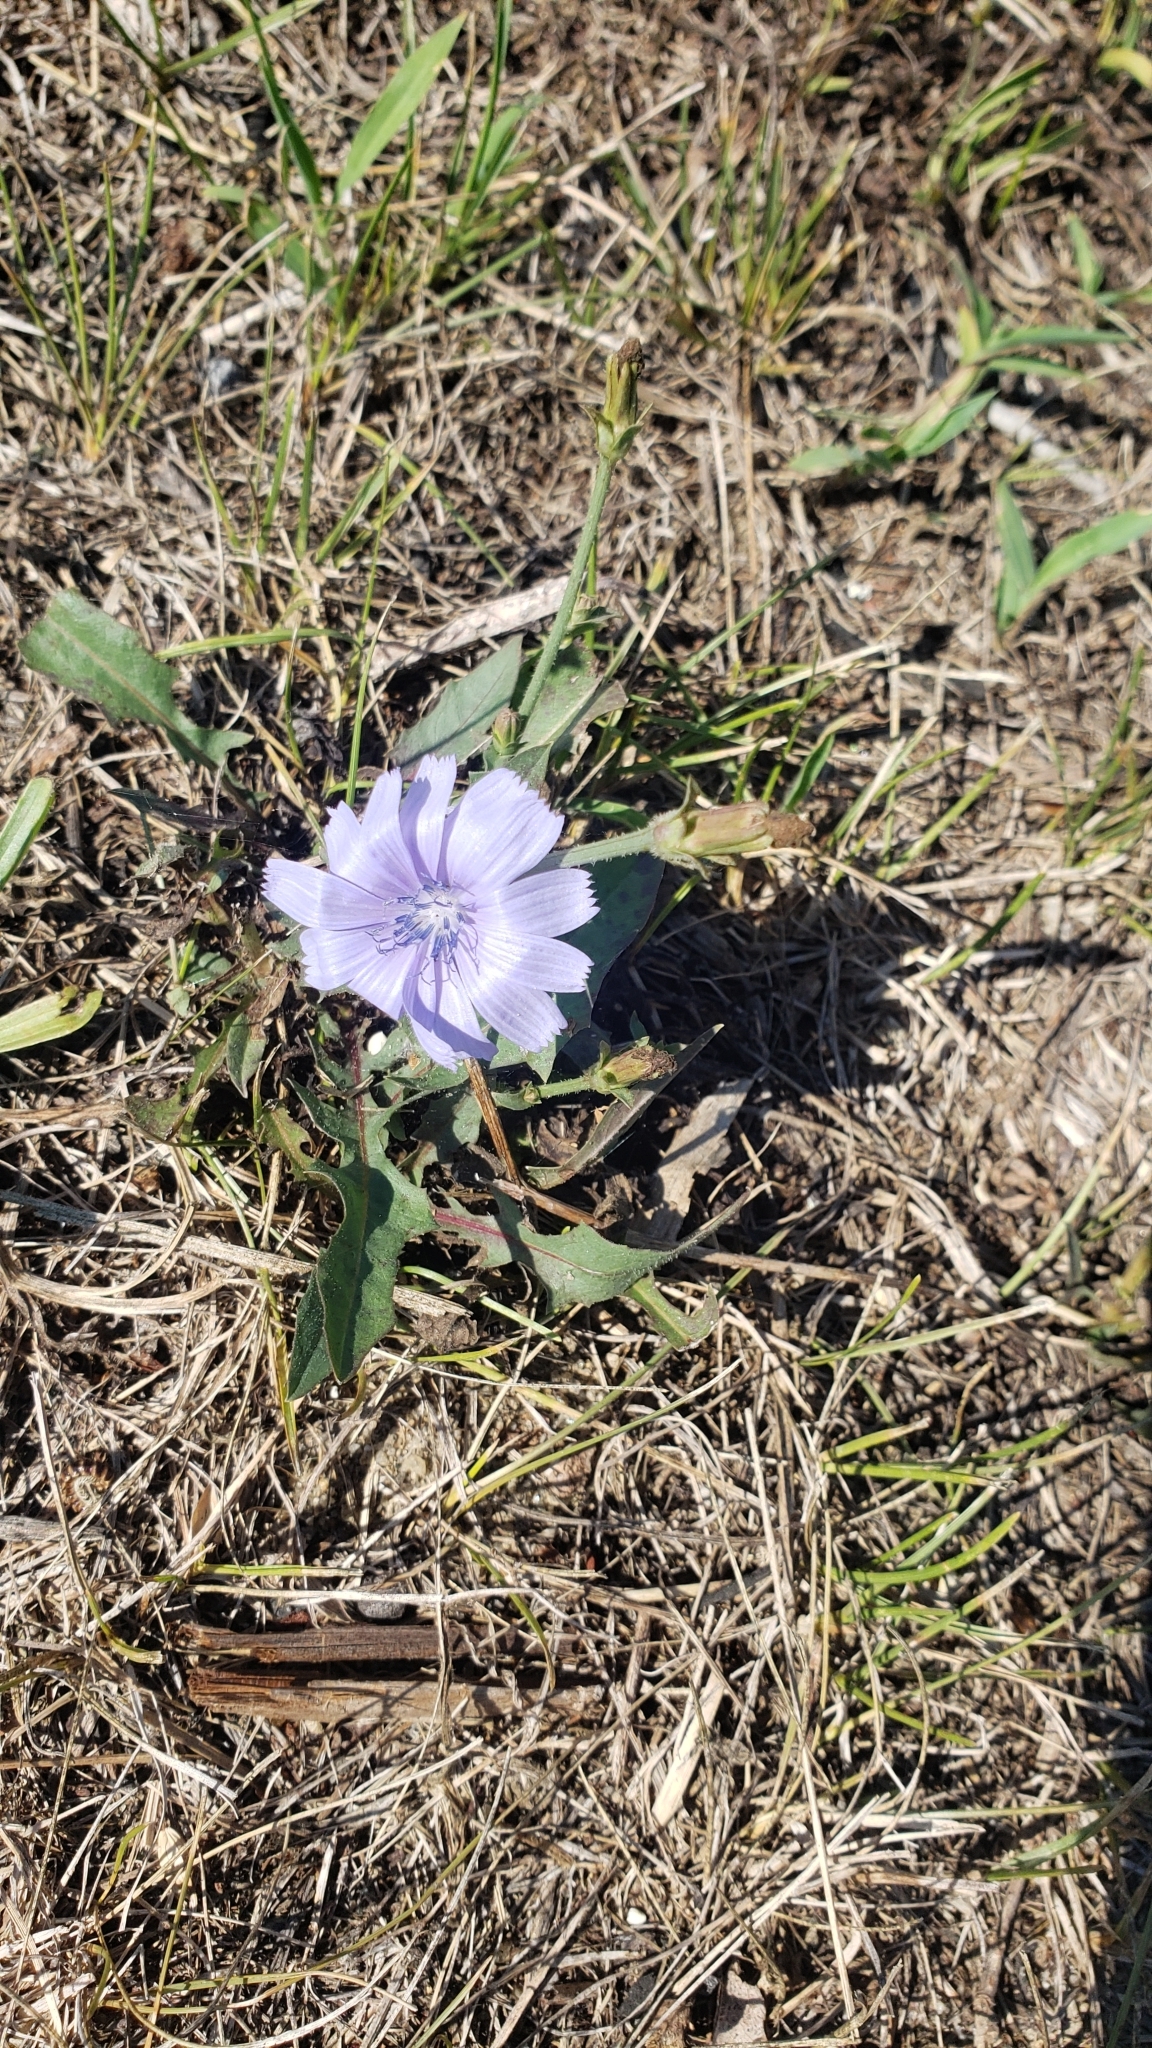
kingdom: Plantae
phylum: Tracheophyta
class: Magnoliopsida
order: Asterales
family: Asteraceae
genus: Cichorium
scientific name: Cichorium intybus
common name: Chicory
